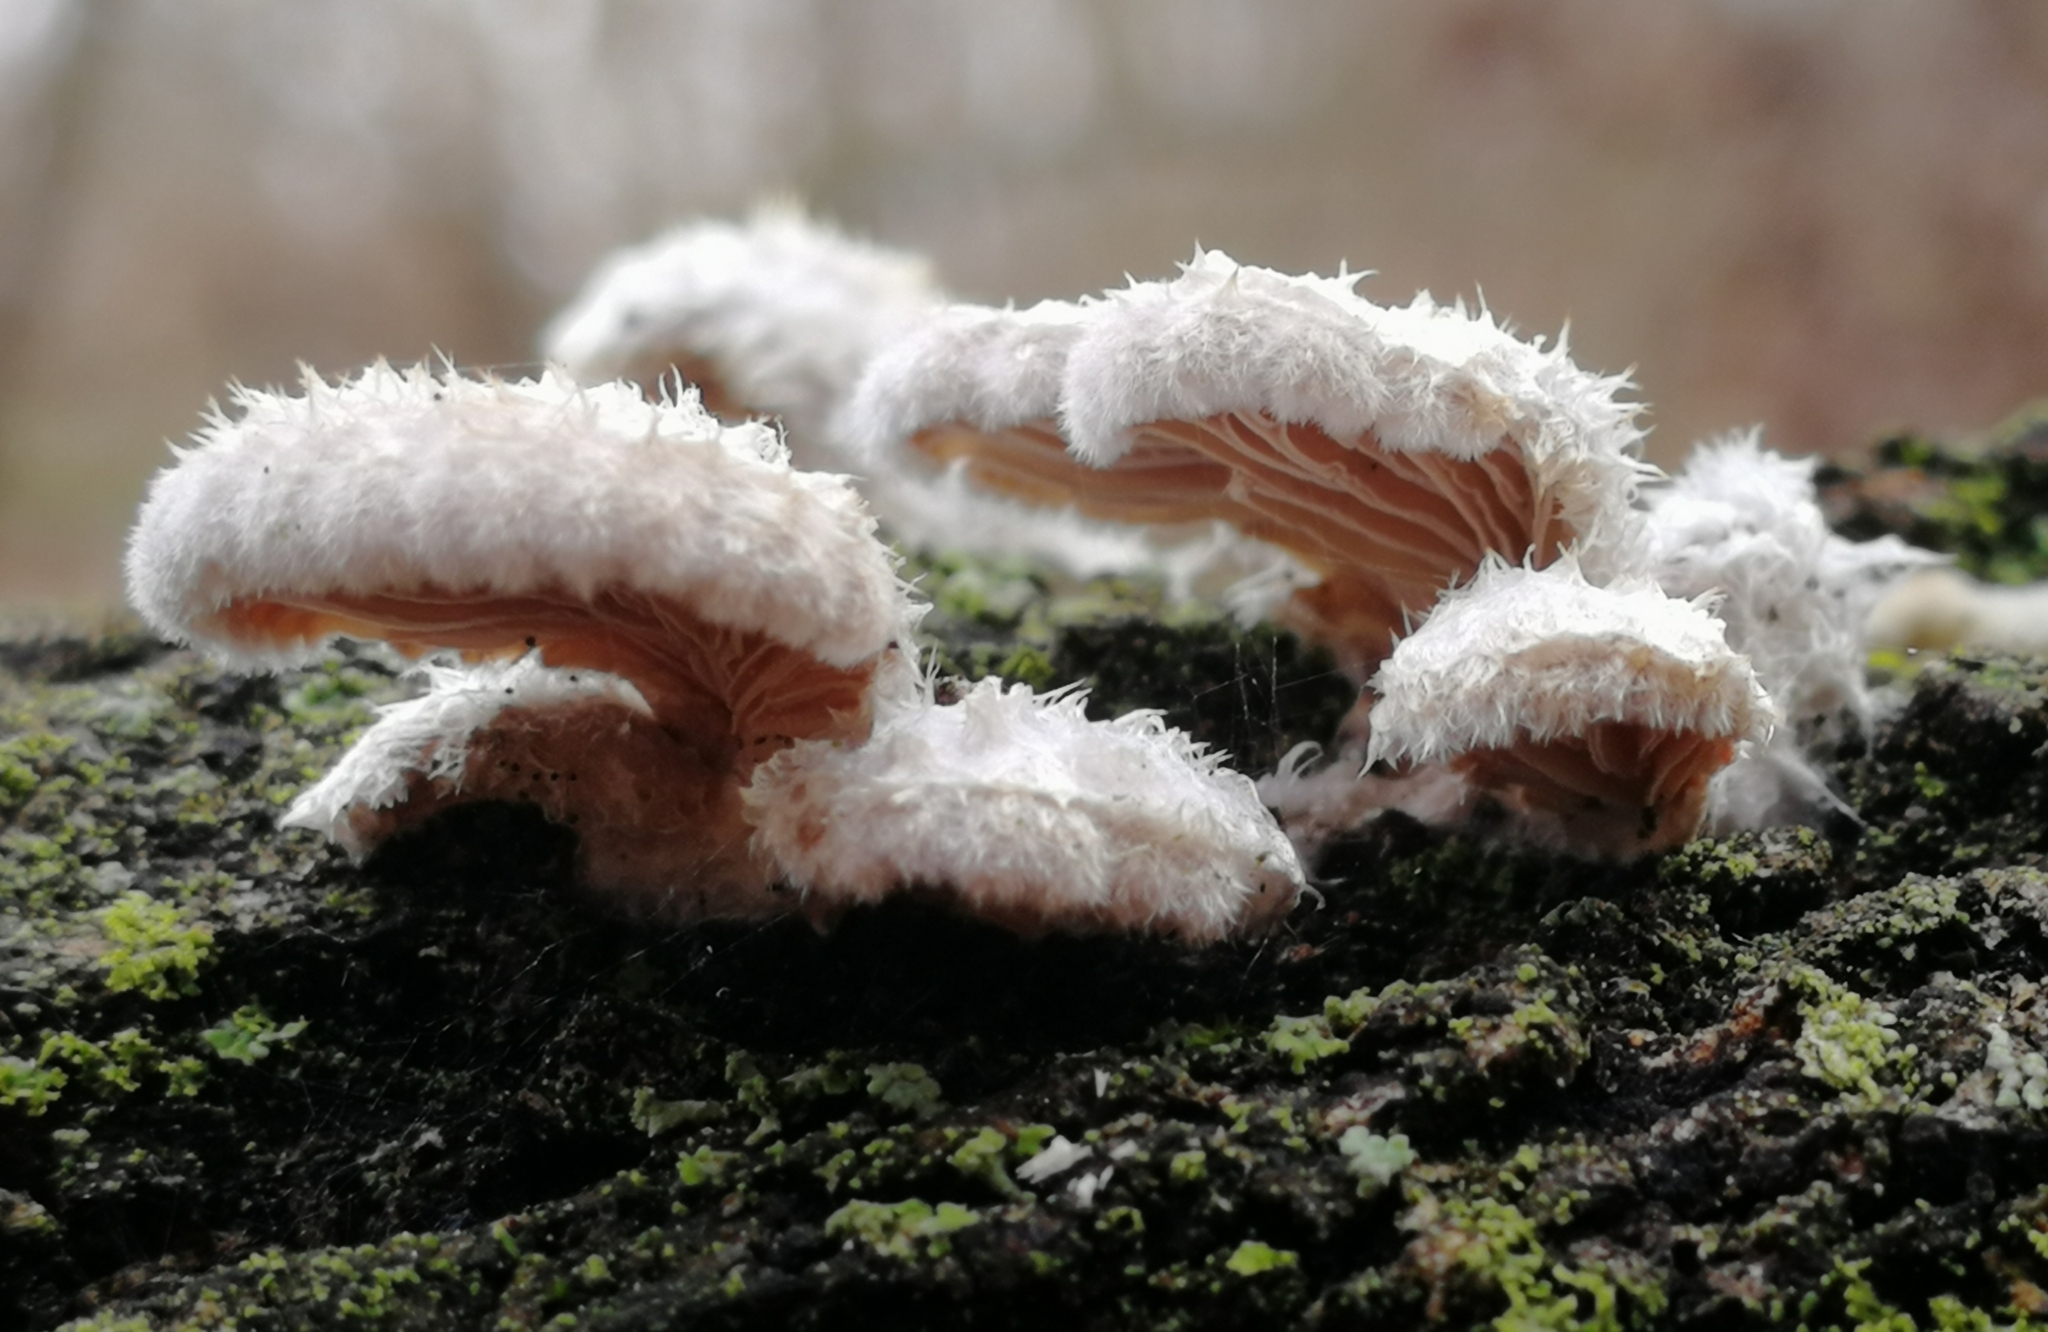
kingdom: Fungi
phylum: Basidiomycota
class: Agaricomycetes
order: Agaricales
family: Schizophyllaceae
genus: Schizophyllum
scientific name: Schizophyllum commune
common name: Common porecrust
